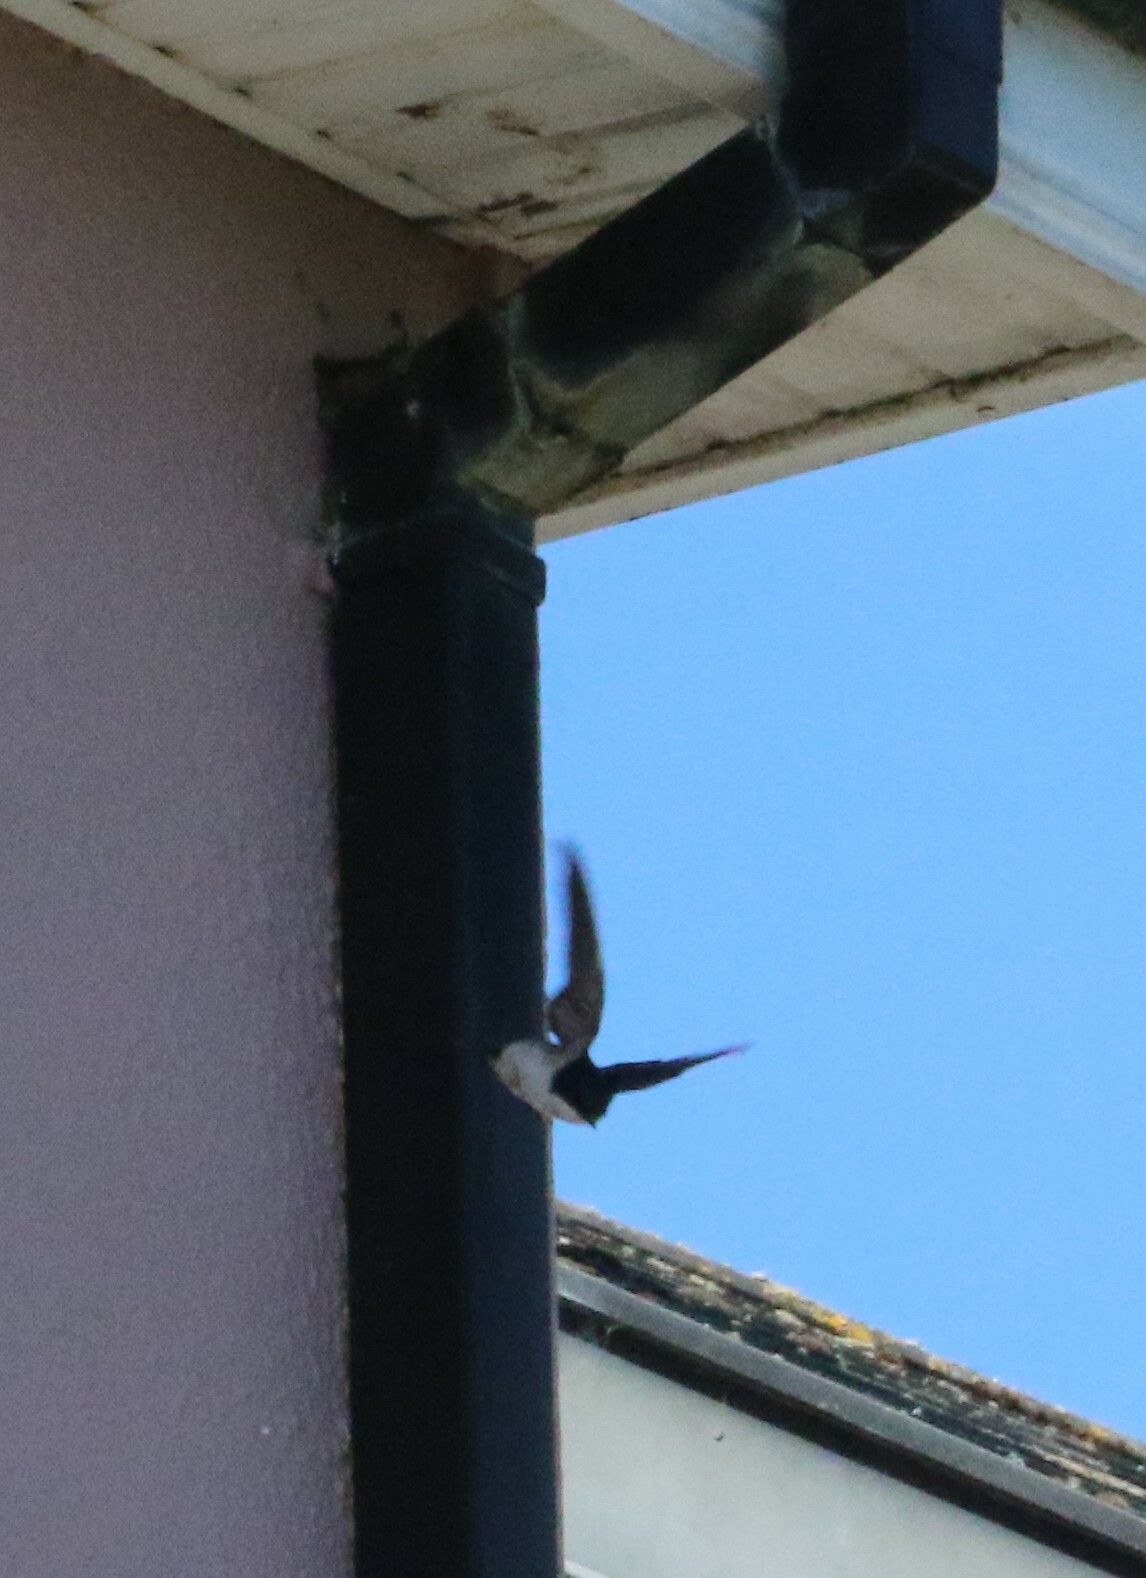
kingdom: Animalia
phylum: Chordata
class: Aves
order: Passeriformes
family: Hirundinidae
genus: Delichon
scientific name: Delichon urbicum
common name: Common house martin
